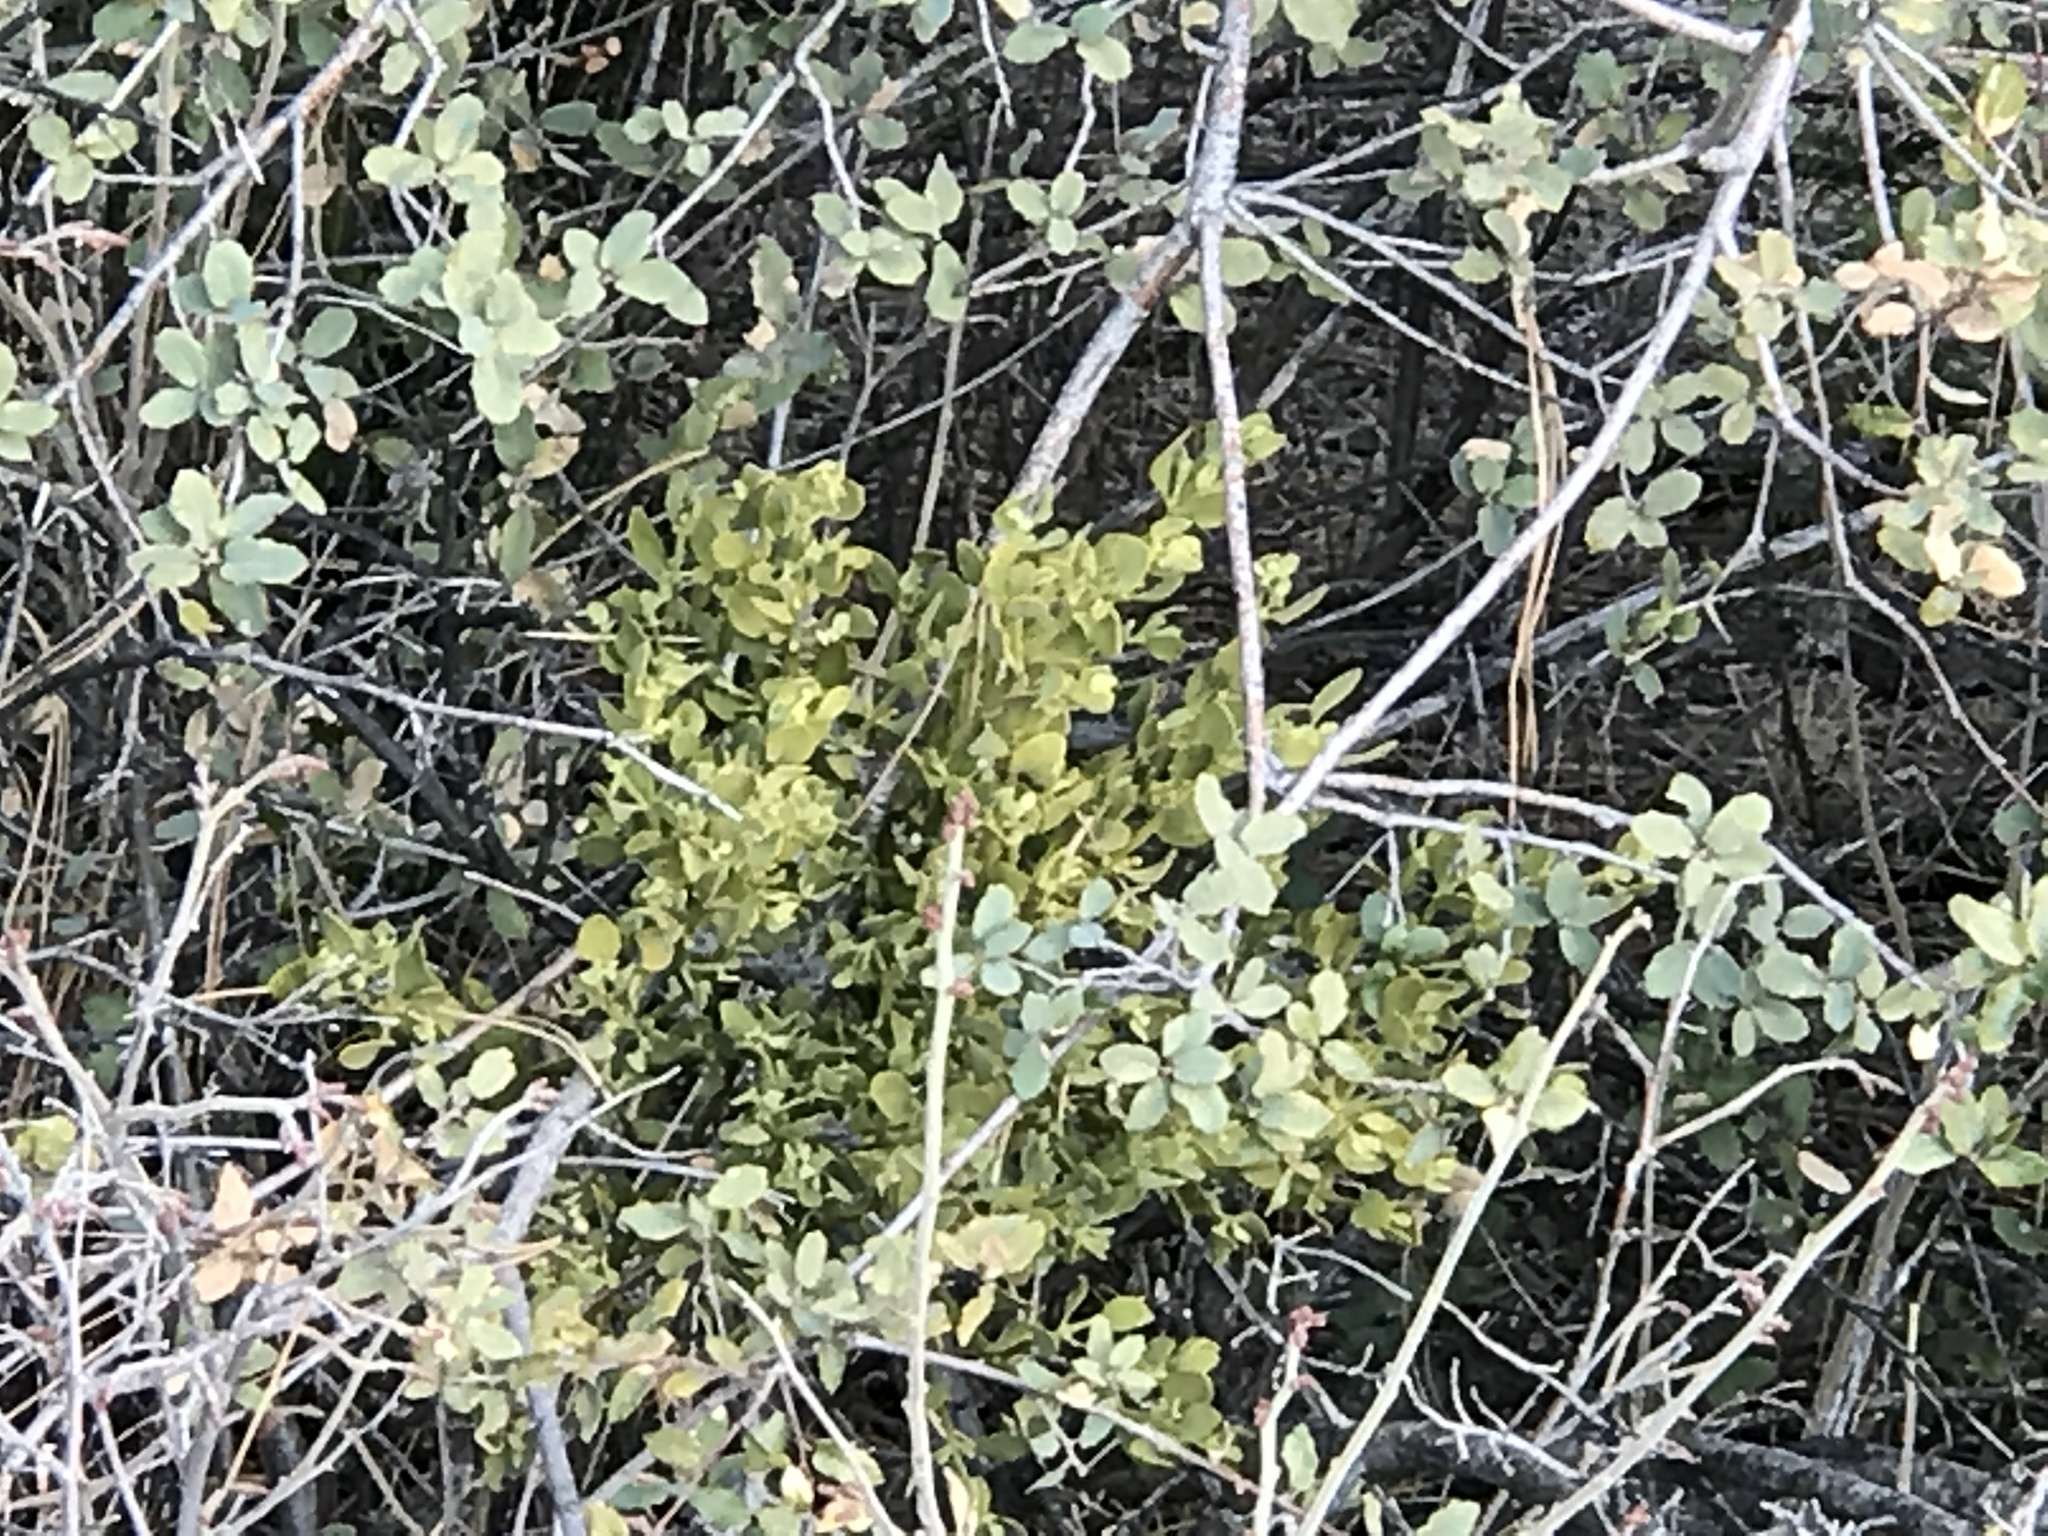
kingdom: Plantae
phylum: Tracheophyta
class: Magnoliopsida
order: Santalales
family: Viscaceae
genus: Phoradendron
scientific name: Phoradendron coryae
